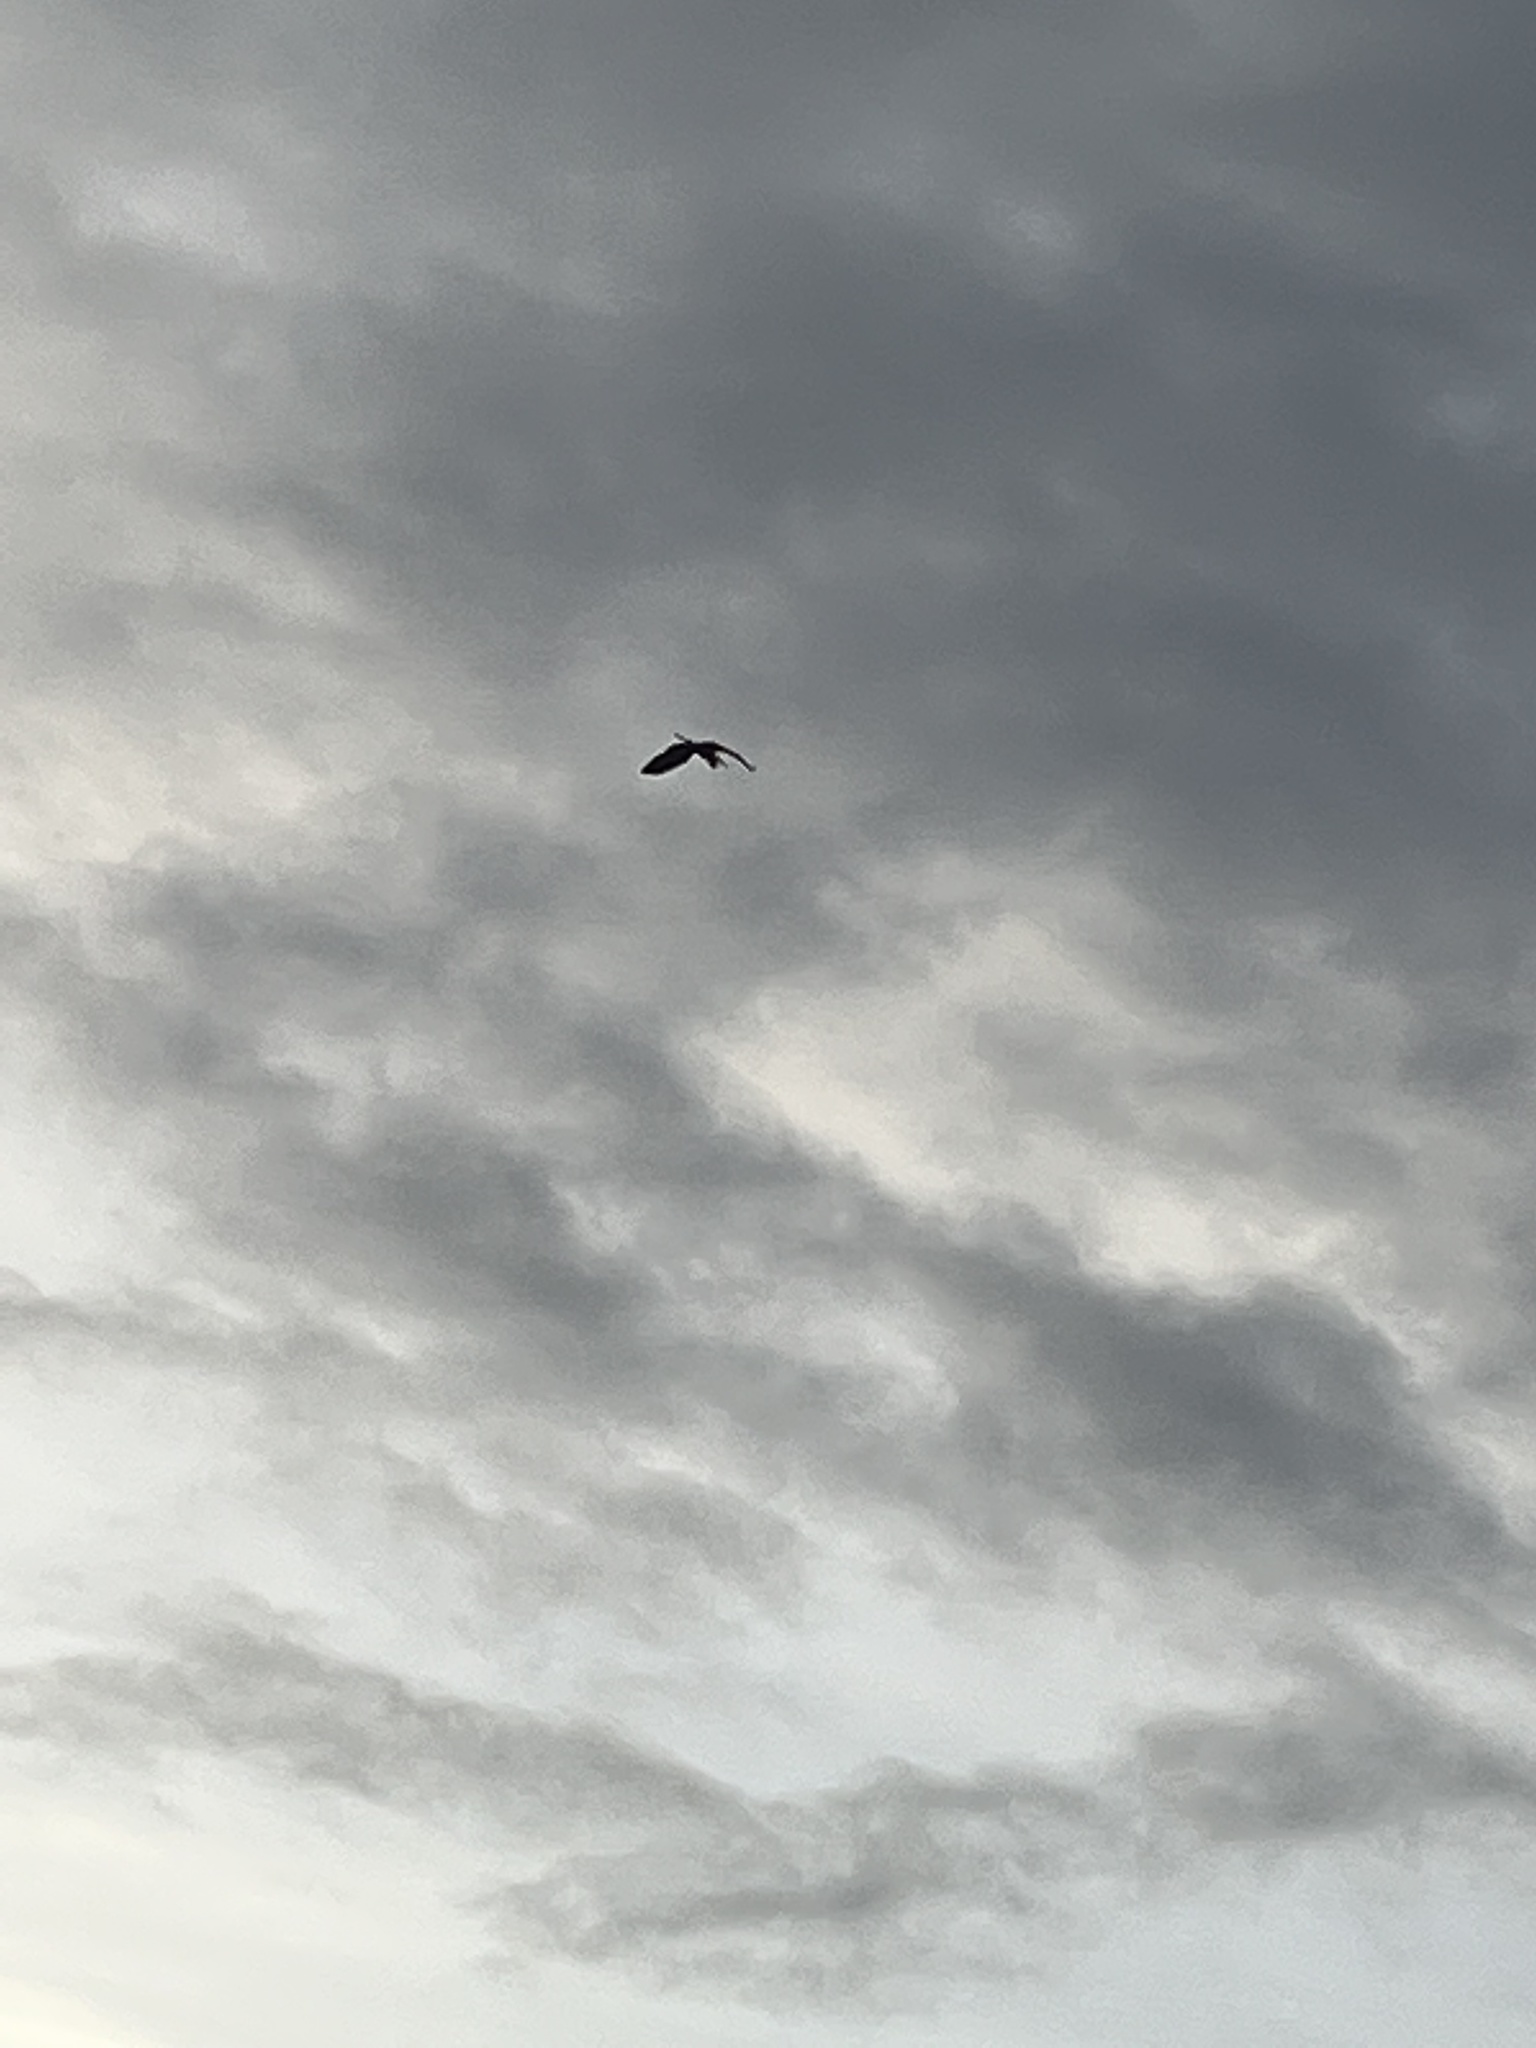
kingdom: Animalia
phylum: Chordata
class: Aves
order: Pelecaniformes
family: Ardeidae
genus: Ardea
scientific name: Ardea herodias
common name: Great blue heron
